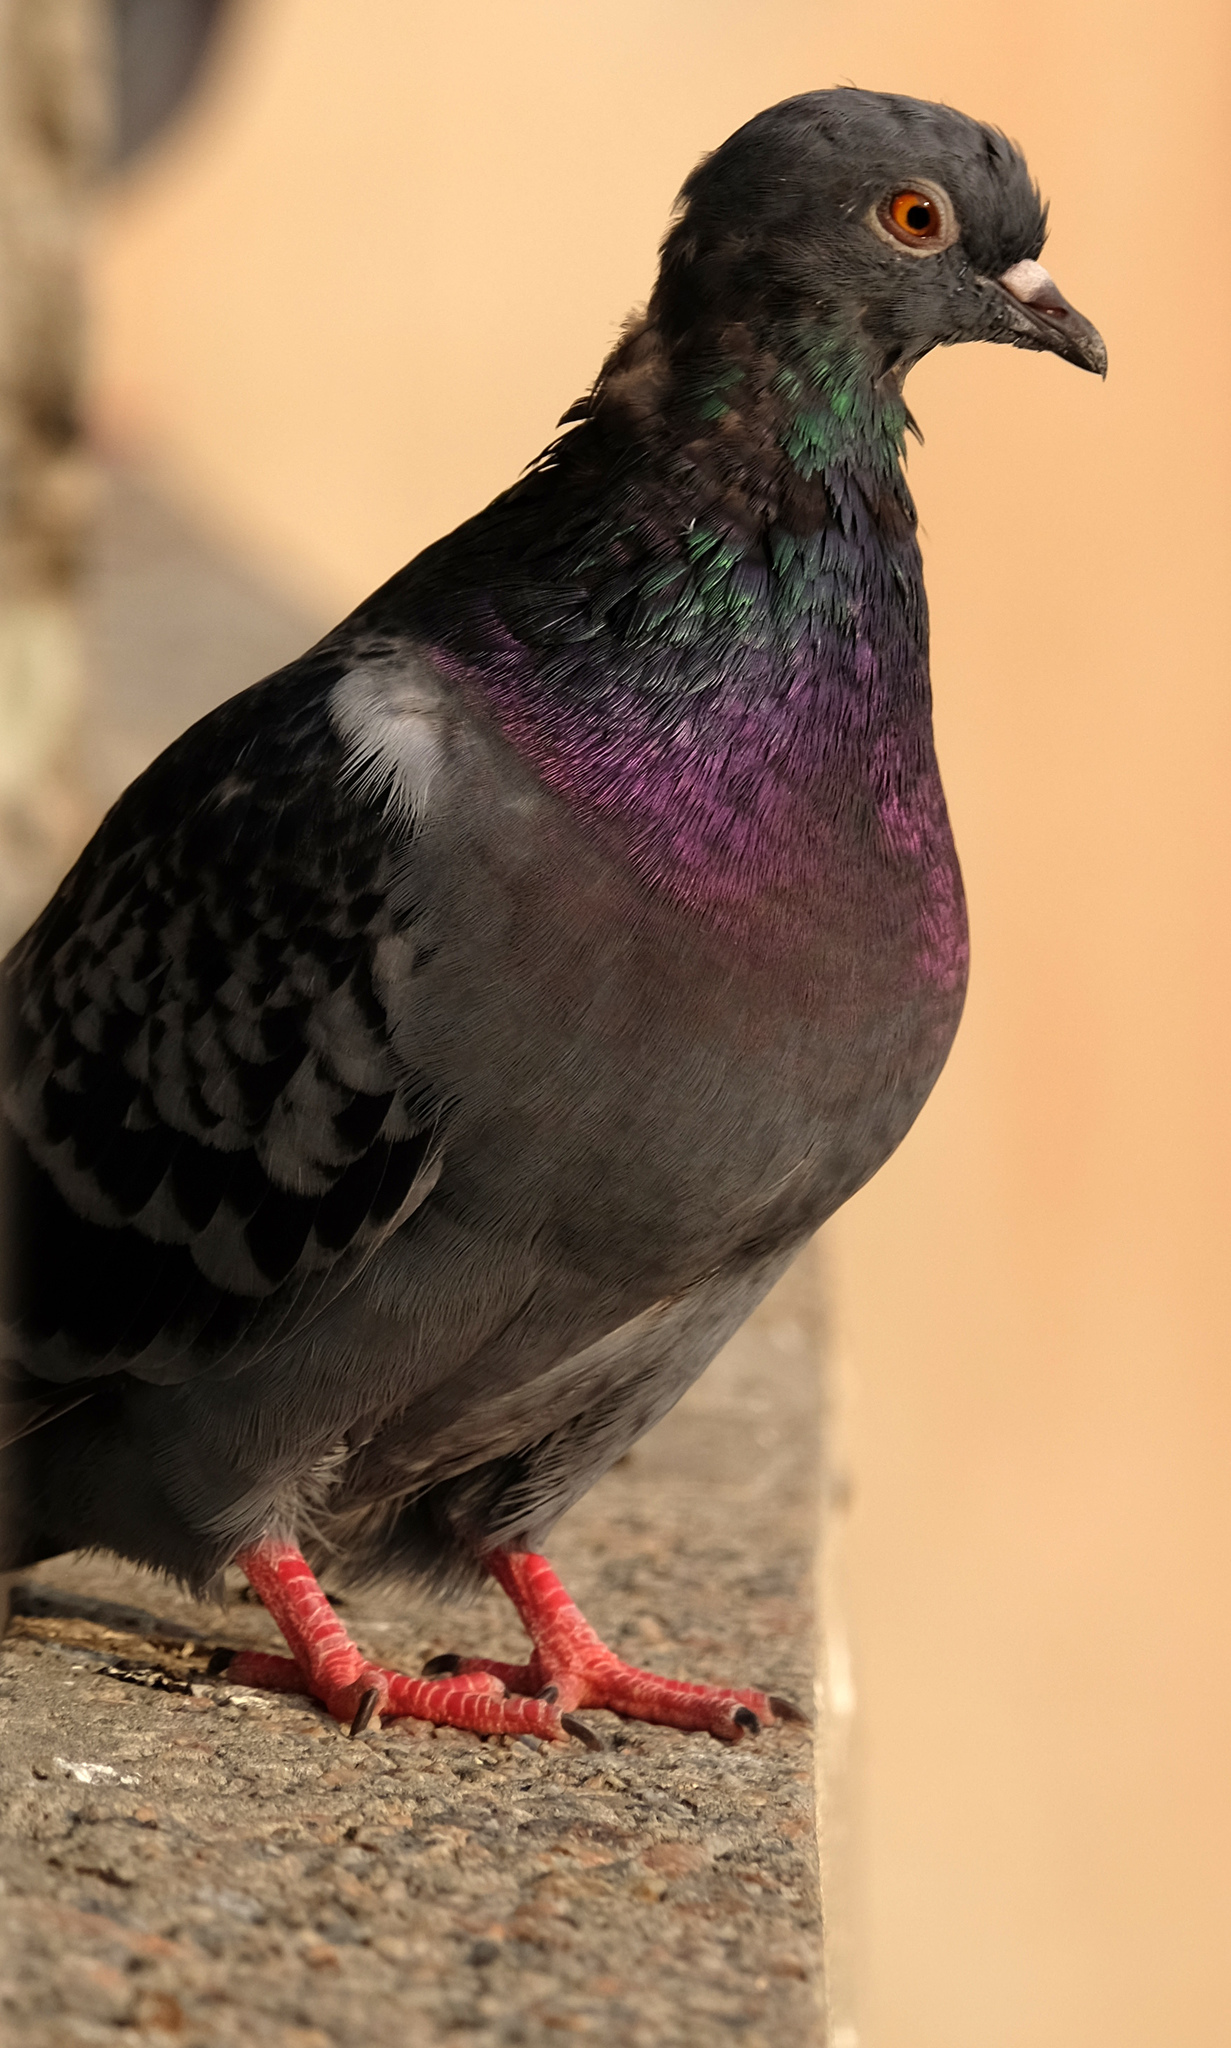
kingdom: Animalia
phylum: Chordata
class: Aves
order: Columbiformes
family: Columbidae
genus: Columba
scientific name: Columba livia
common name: Rock pigeon
